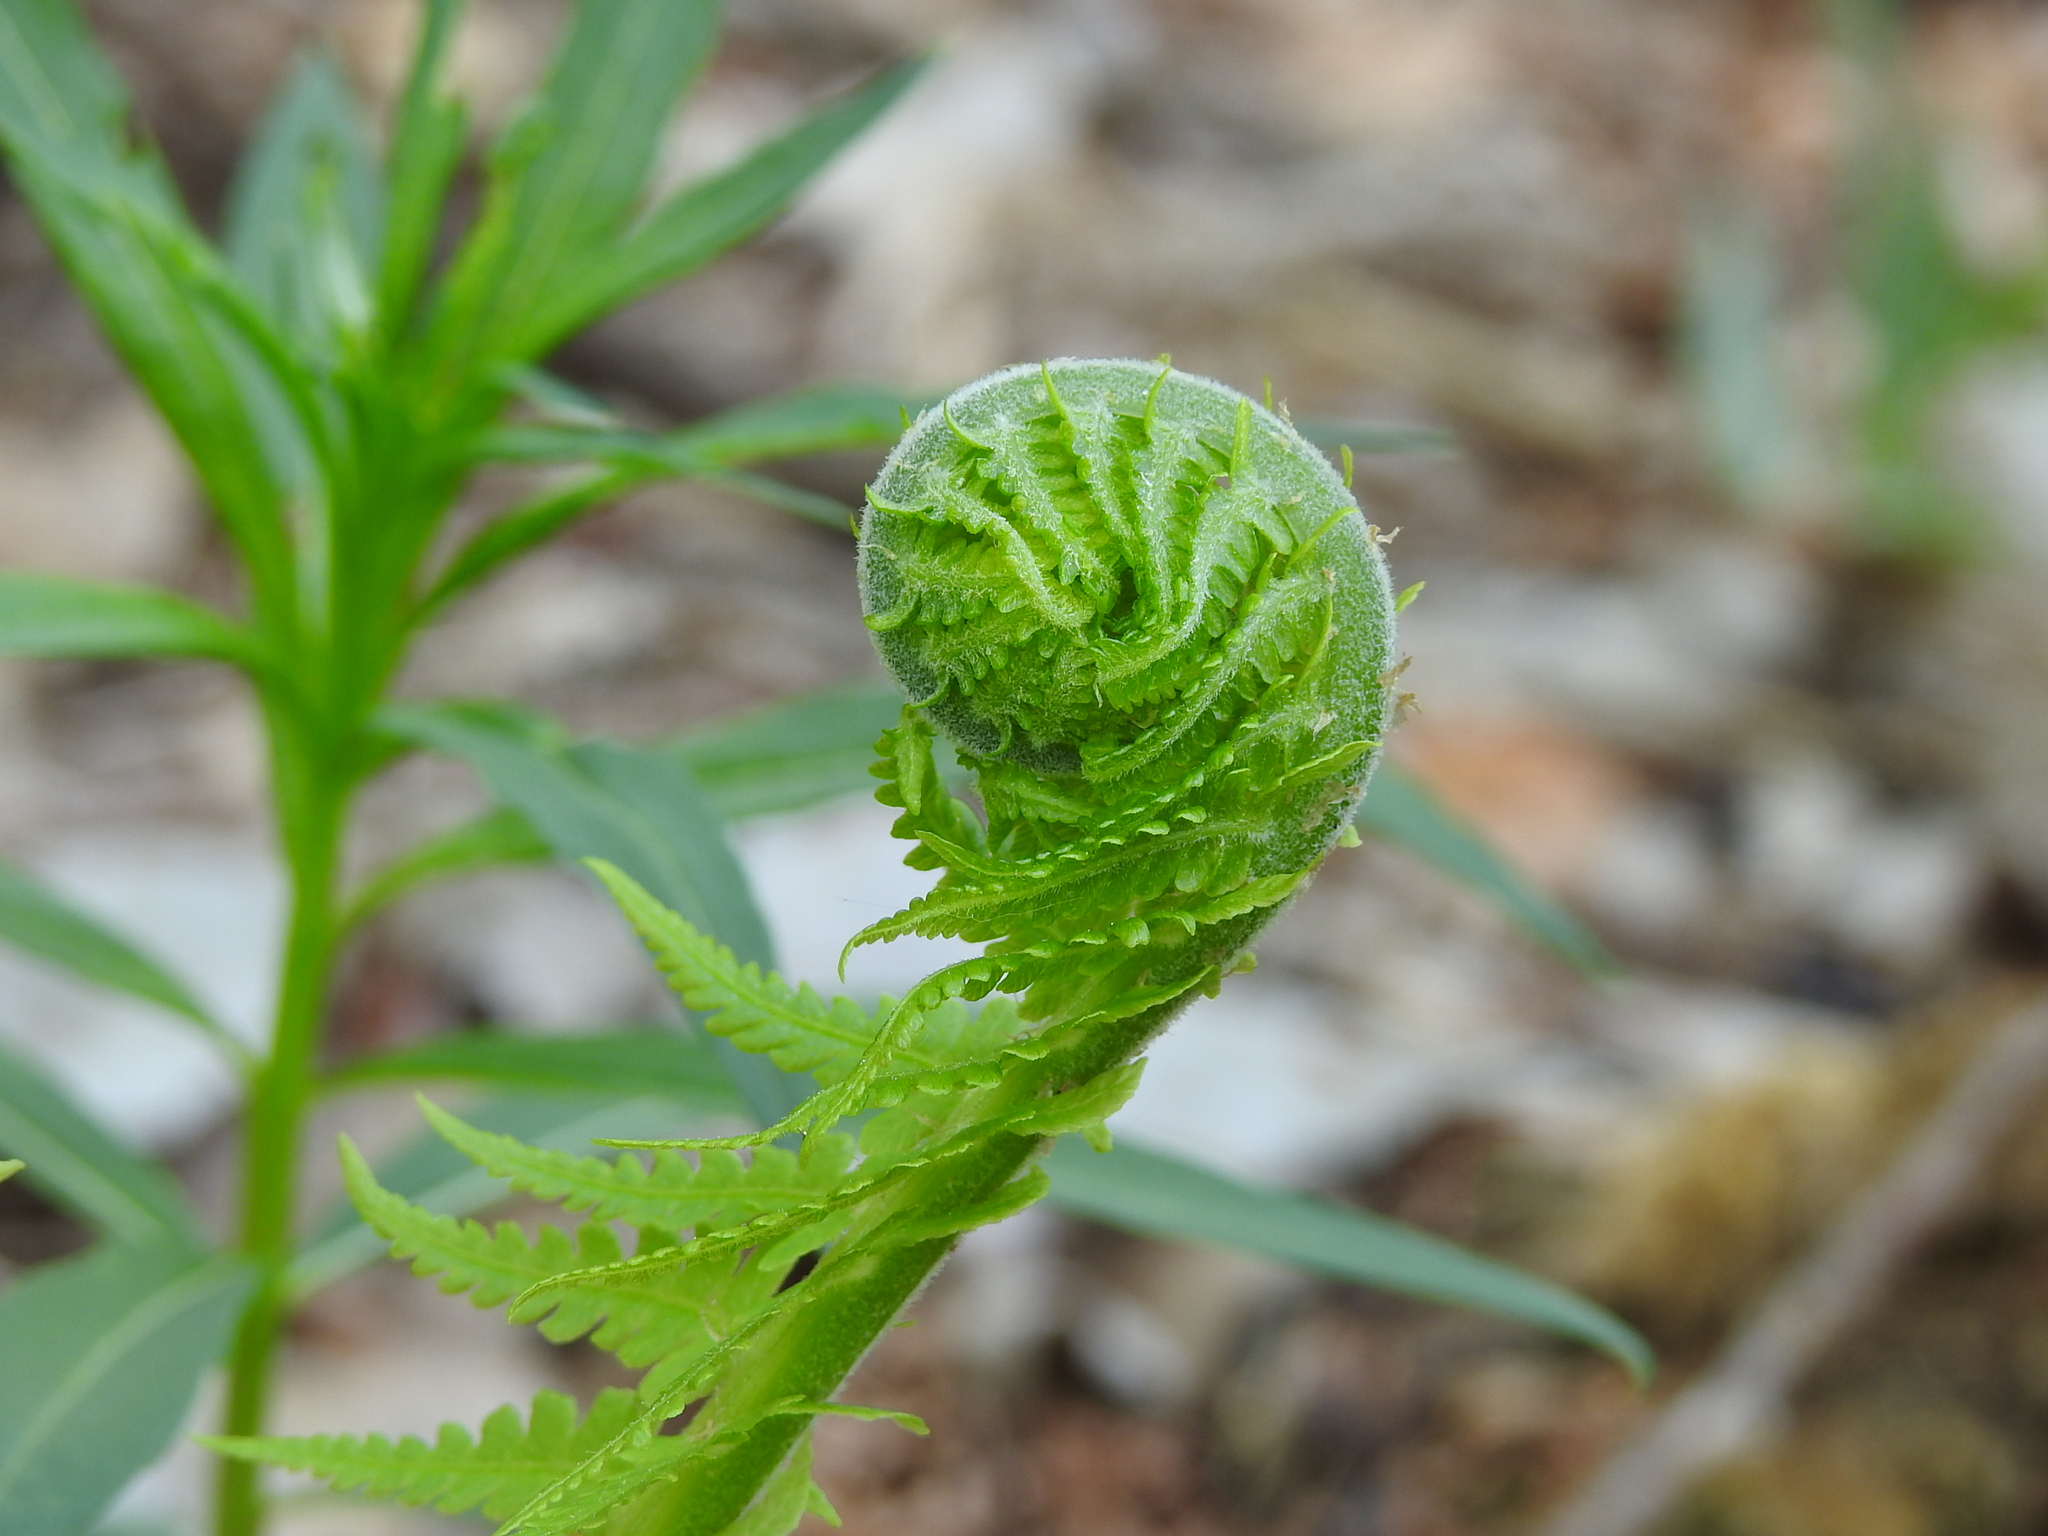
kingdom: Plantae
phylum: Tracheophyta
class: Polypodiopsida
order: Polypodiales
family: Onocleaceae
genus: Matteuccia
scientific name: Matteuccia struthiopteris
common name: Ostrich fern
